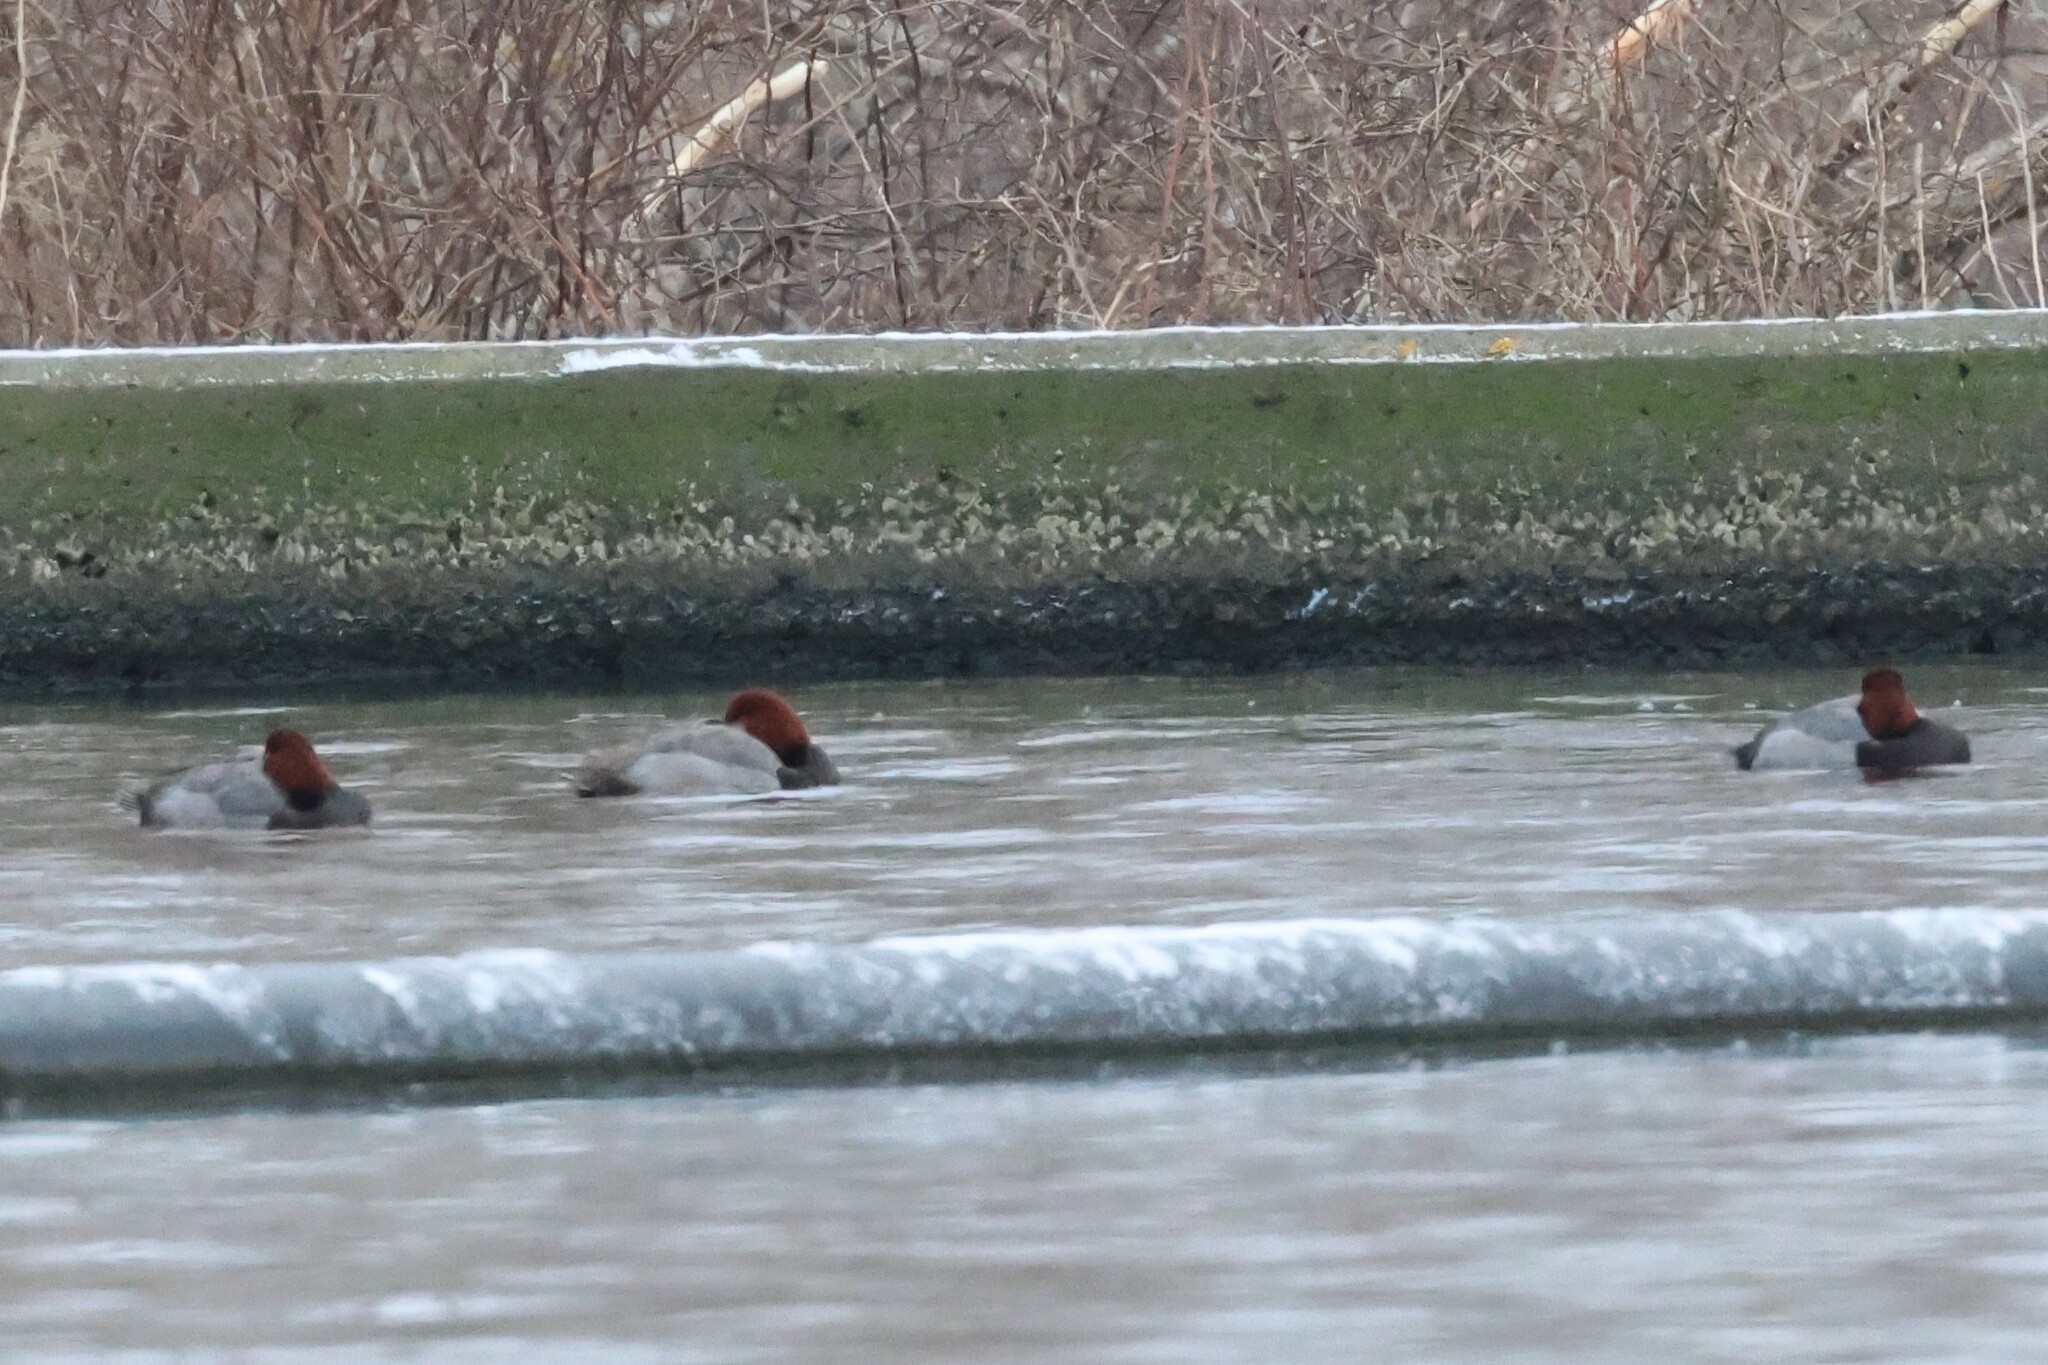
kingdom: Animalia
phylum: Chordata
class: Aves
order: Anseriformes
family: Anatidae
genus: Aythya
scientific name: Aythya americana
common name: Redhead
